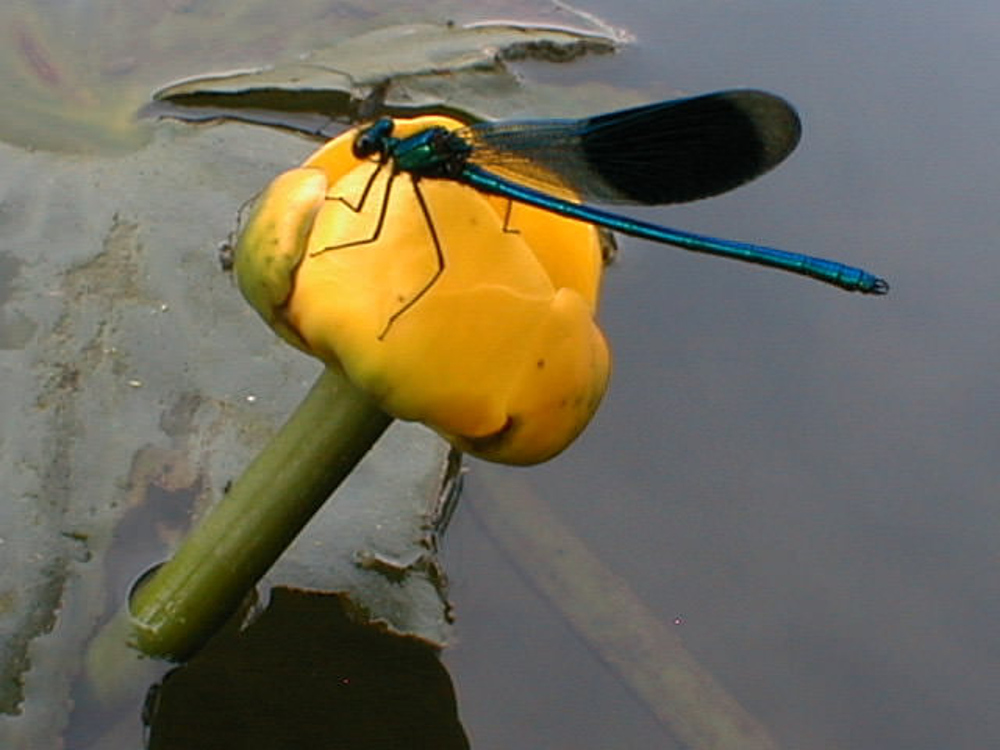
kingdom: Animalia
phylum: Arthropoda
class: Insecta
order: Odonata
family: Calopterygidae
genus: Calopteryx
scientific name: Calopteryx splendens
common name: Banded demoiselle
